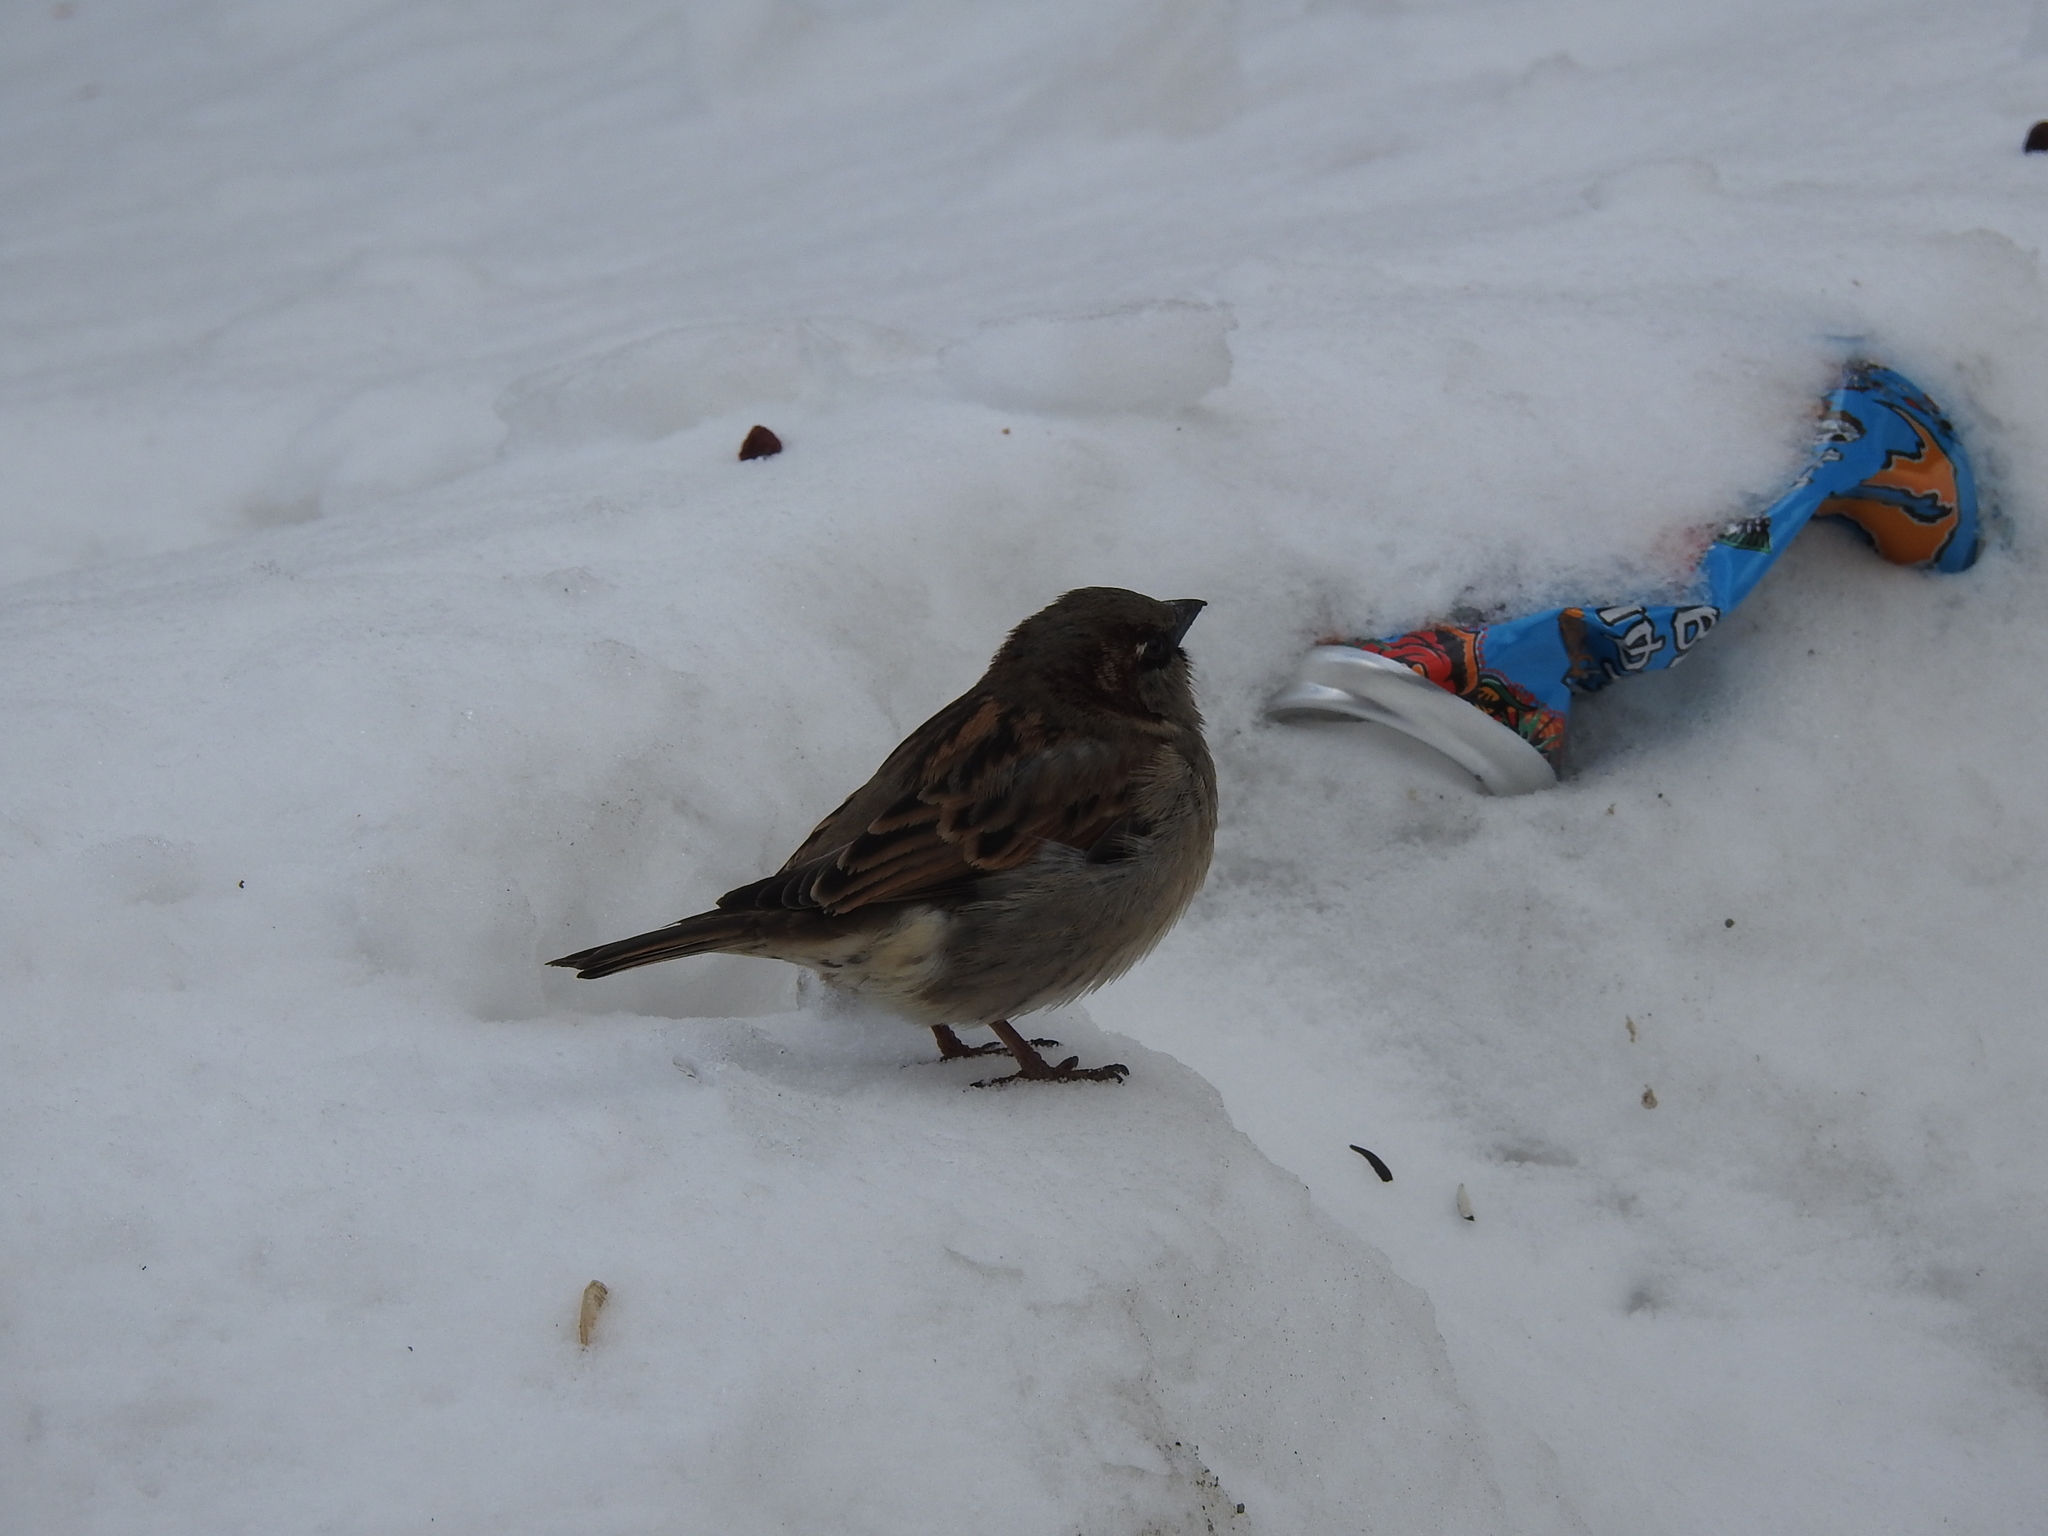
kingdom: Animalia
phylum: Chordata
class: Aves
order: Passeriformes
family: Passeridae
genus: Passer
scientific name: Passer domesticus
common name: House sparrow
